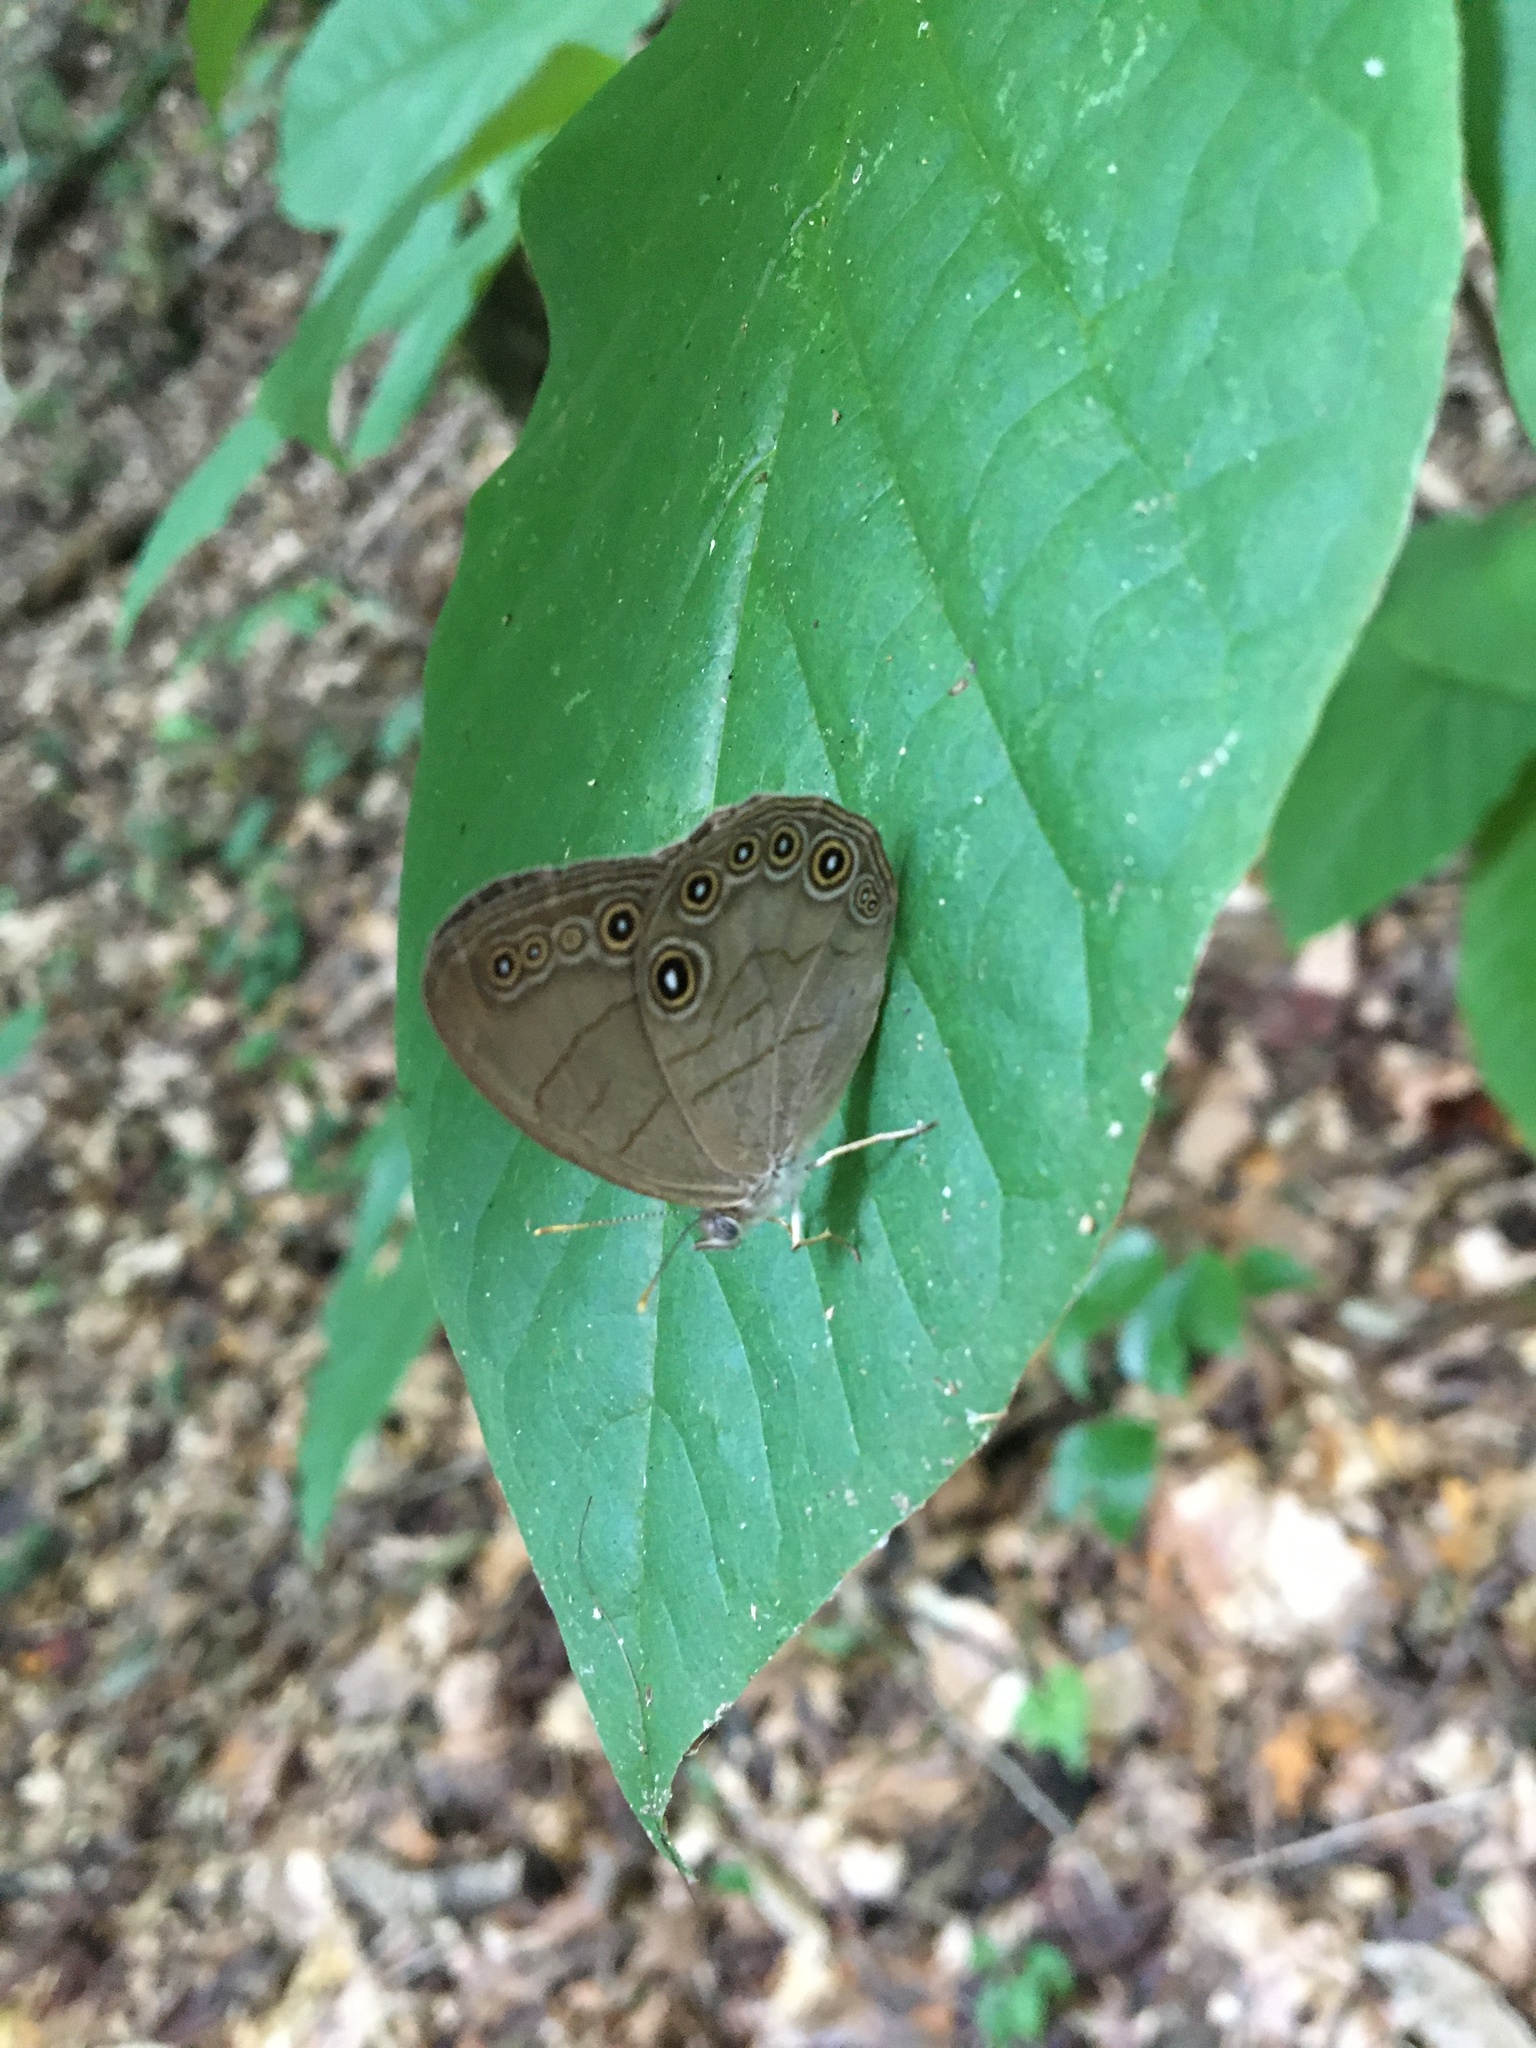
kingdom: Animalia
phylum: Arthropoda
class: Insecta
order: Lepidoptera
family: Nymphalidae
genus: Lethe
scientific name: Lethe eurydice
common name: Eyed brown
